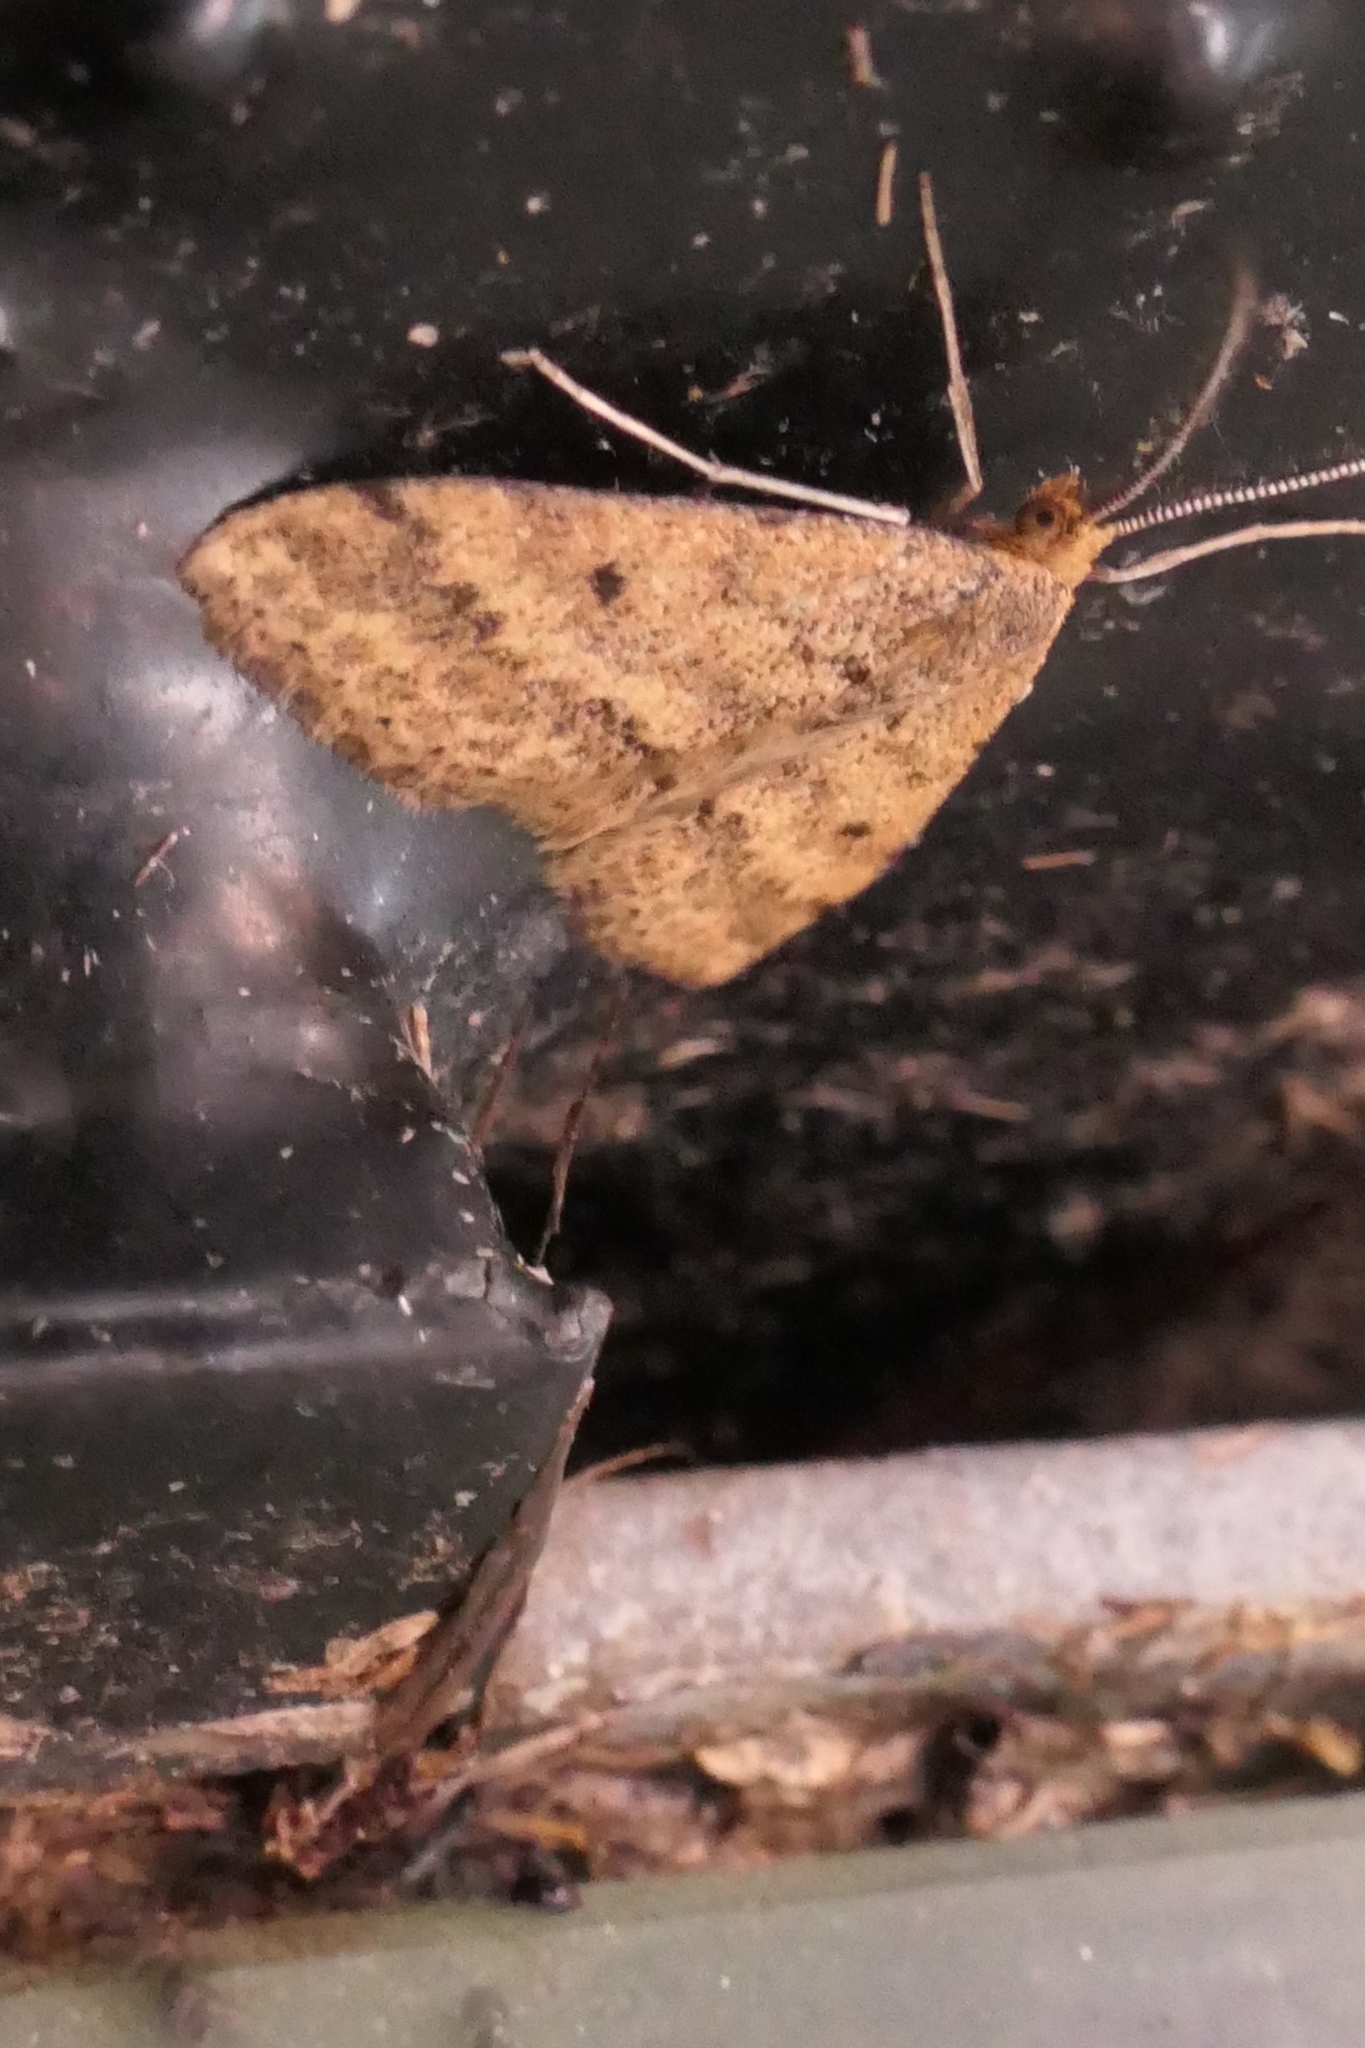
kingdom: Animalia
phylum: Arthropoda
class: Insecta
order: Lepidoptera
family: Geometridae
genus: Scopula
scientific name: Scopula rubraria
